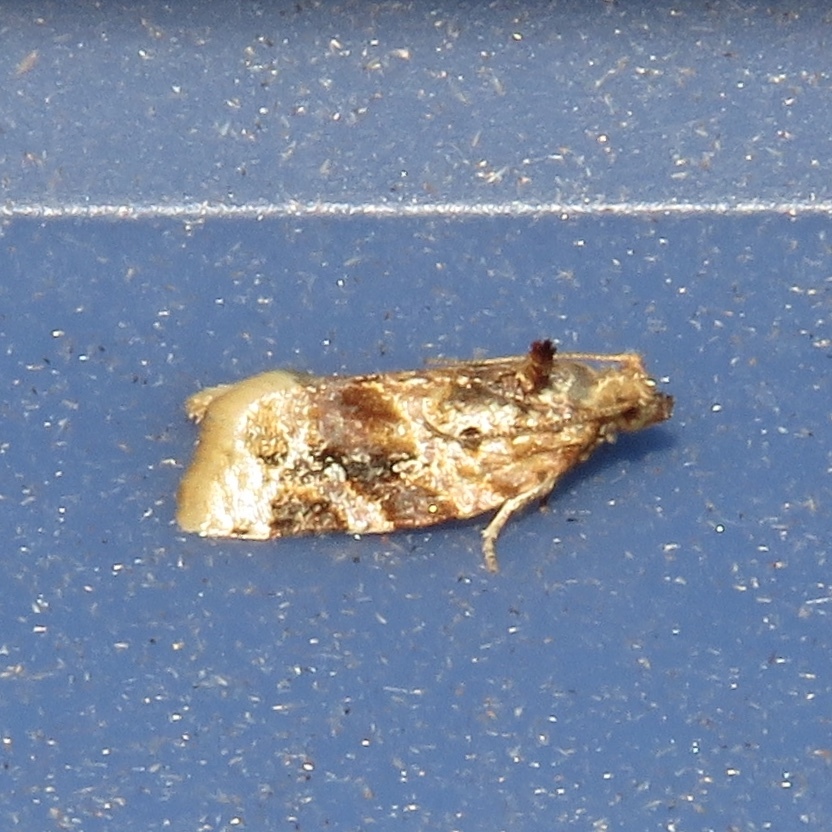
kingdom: Animalia
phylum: Arthropoda
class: Insecta
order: Lepidoptera
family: Tortricidae
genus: Argyrotaenia
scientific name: Argyrotaenia velutinana
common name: Red-banded leafroller moth
